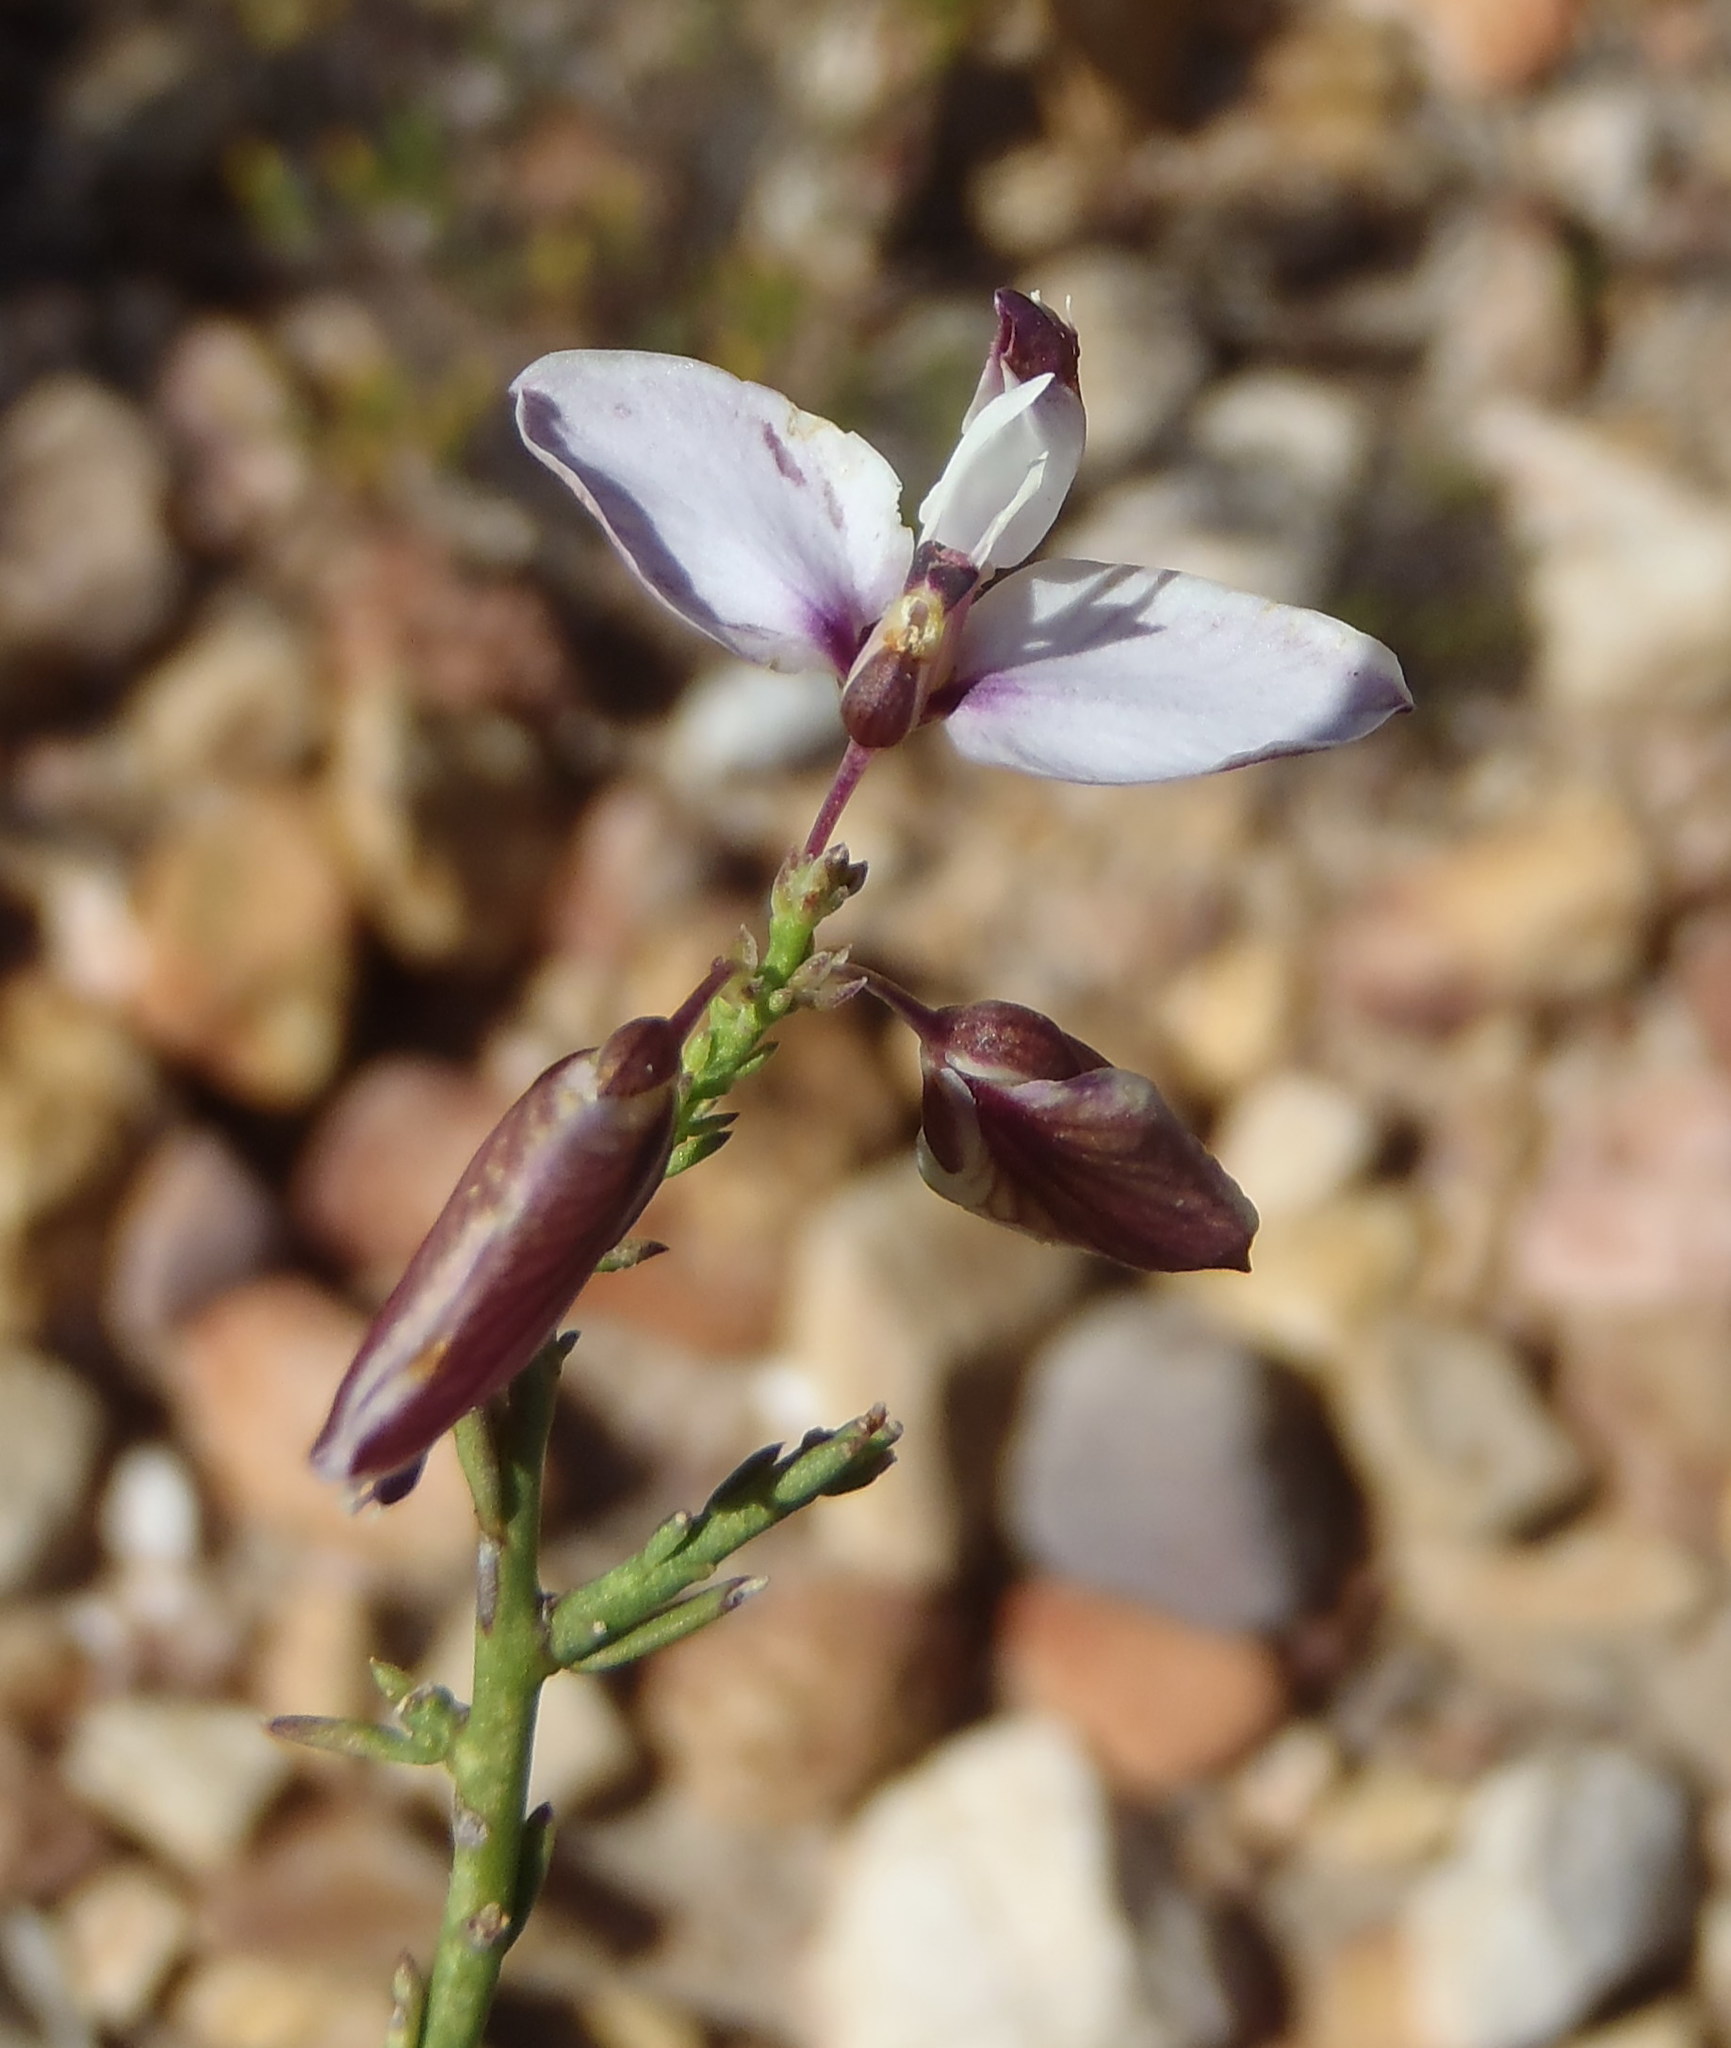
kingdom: Plantae
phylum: Tracheophyta
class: Magnoliopsida
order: Fabales
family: Polygalaceae
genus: Polygala
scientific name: Polygala microlopha
